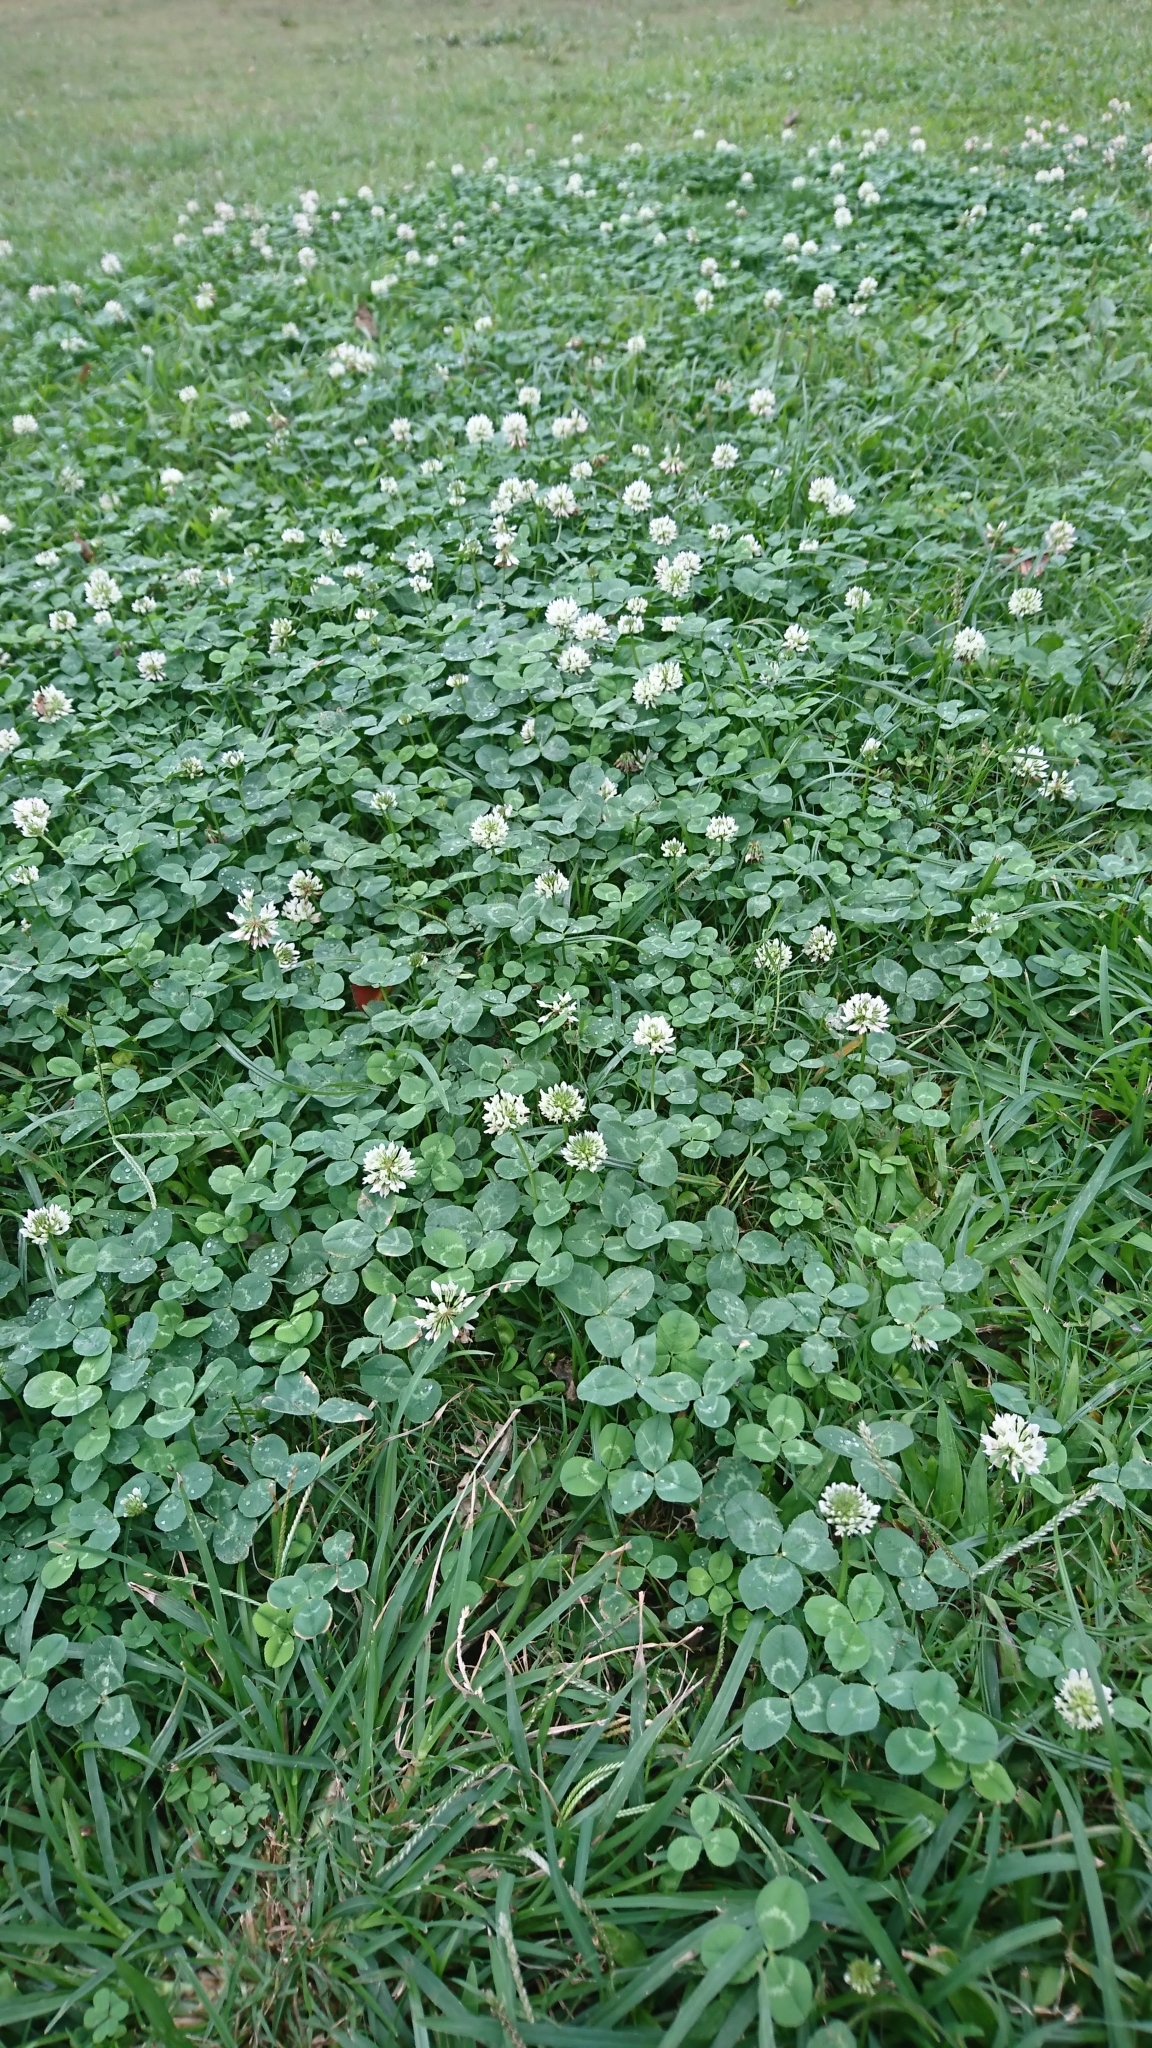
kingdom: Plantae
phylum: Tracheophyta
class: Magnoliopsida
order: Fabales
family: Fabaceae
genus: Trifolium
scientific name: Trifolium repens
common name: White clover
